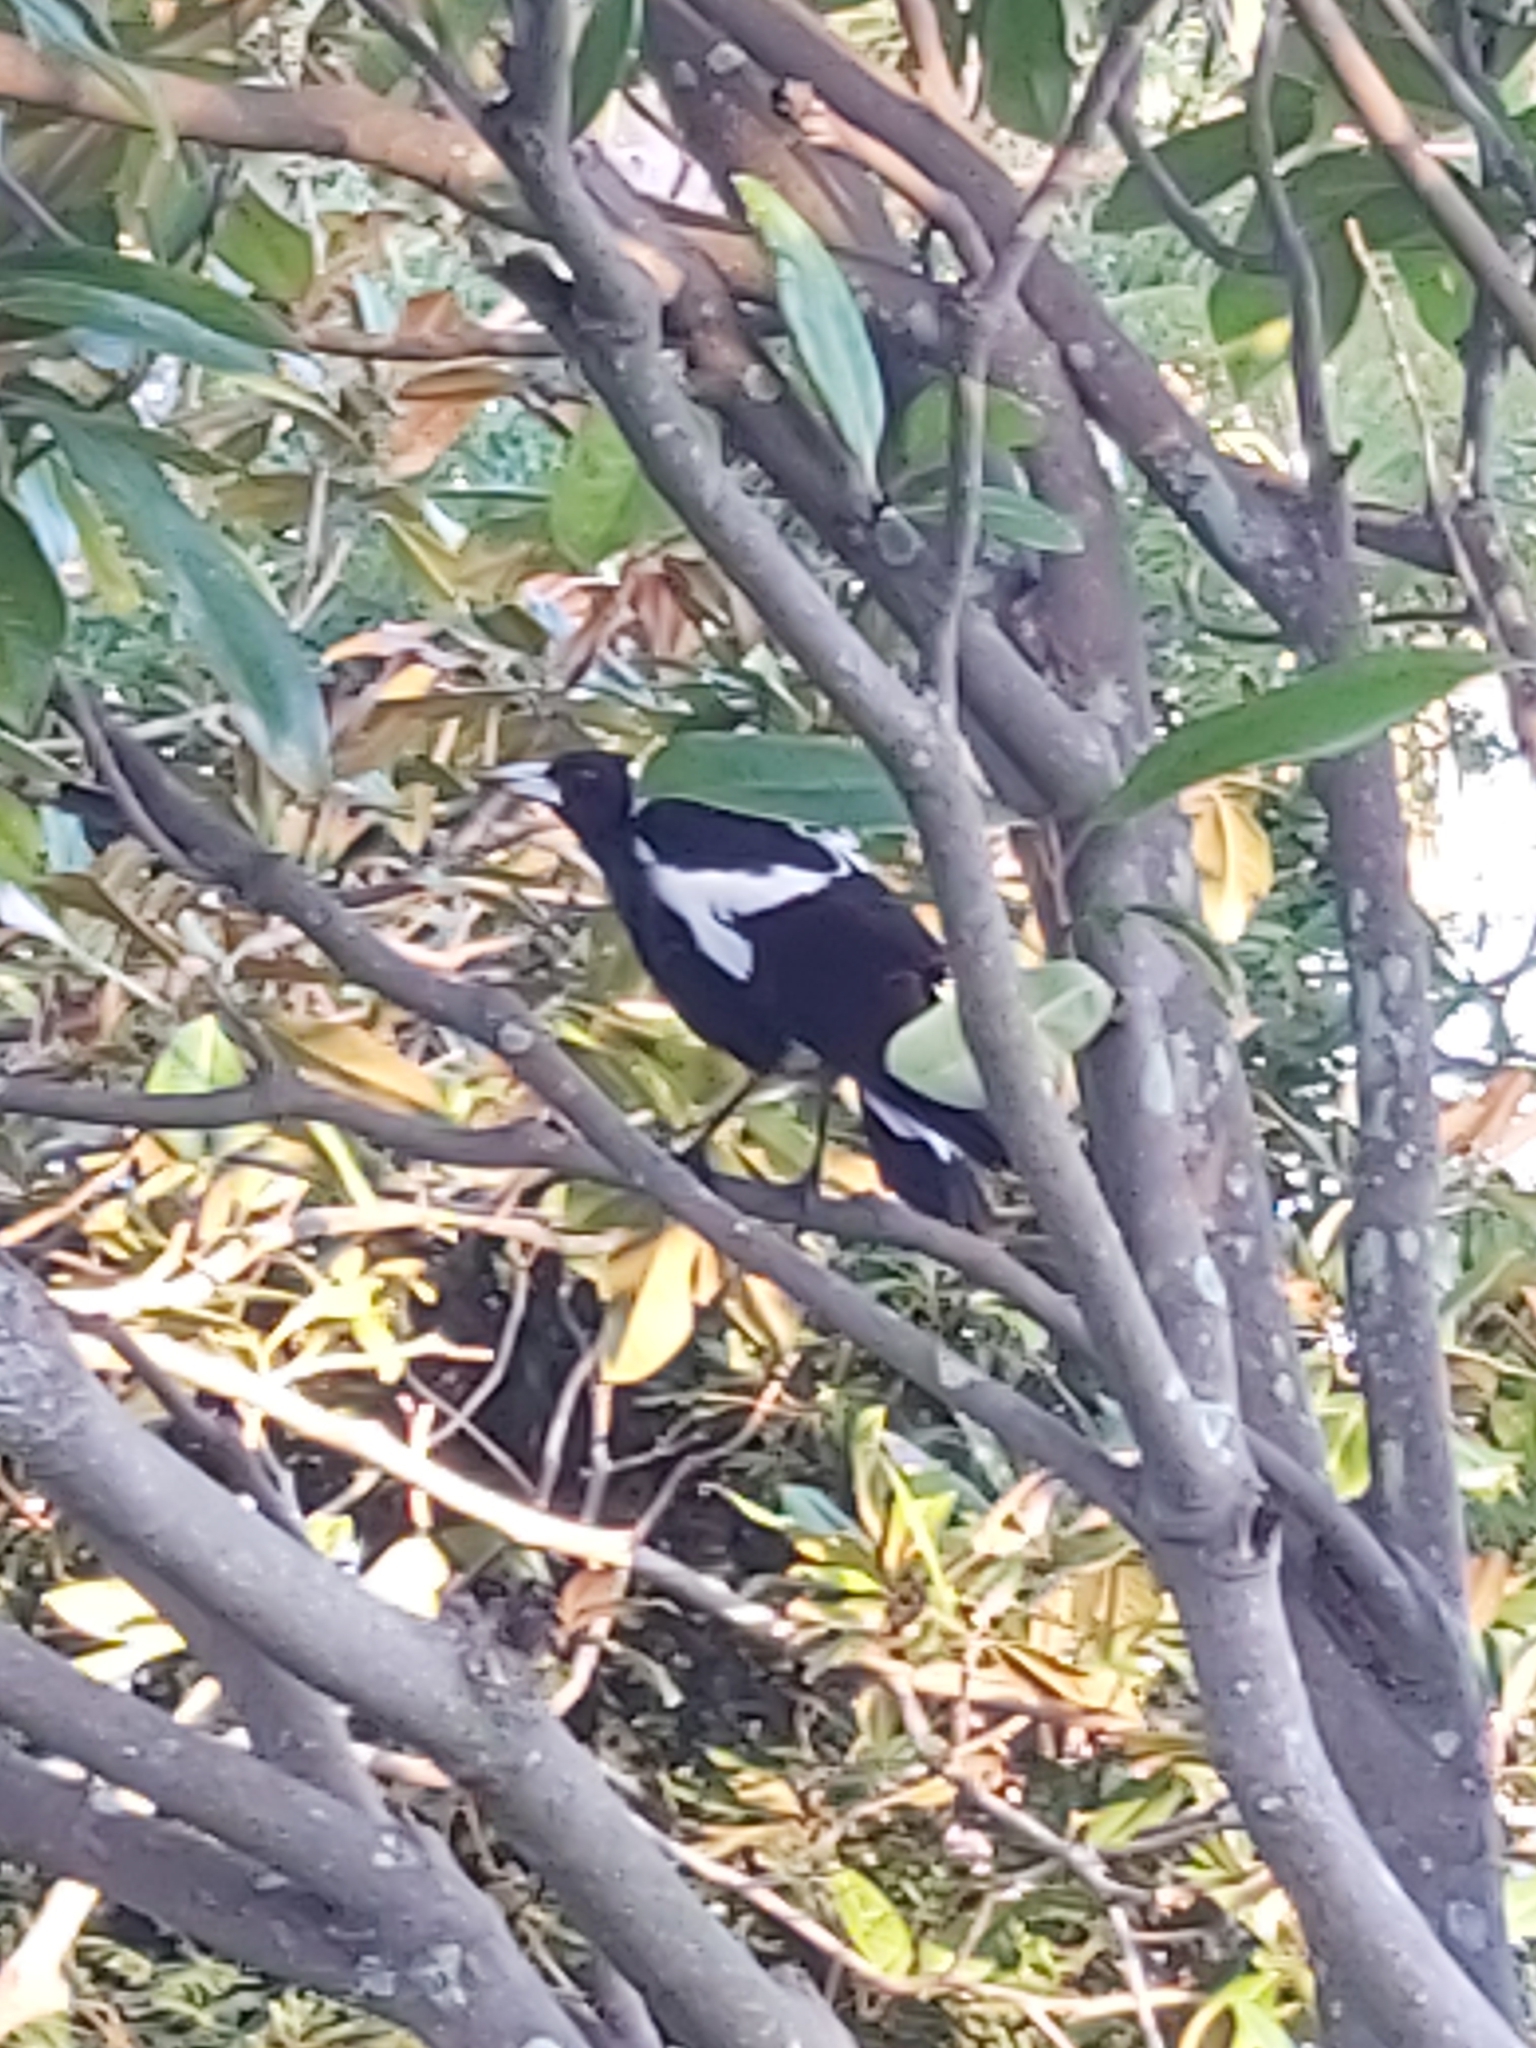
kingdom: Animalia
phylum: Chordata
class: Aves
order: Passeriformes
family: Cracticidae
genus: Gymnorhina
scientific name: Gymnorhina tibicen
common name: Australian magpie
